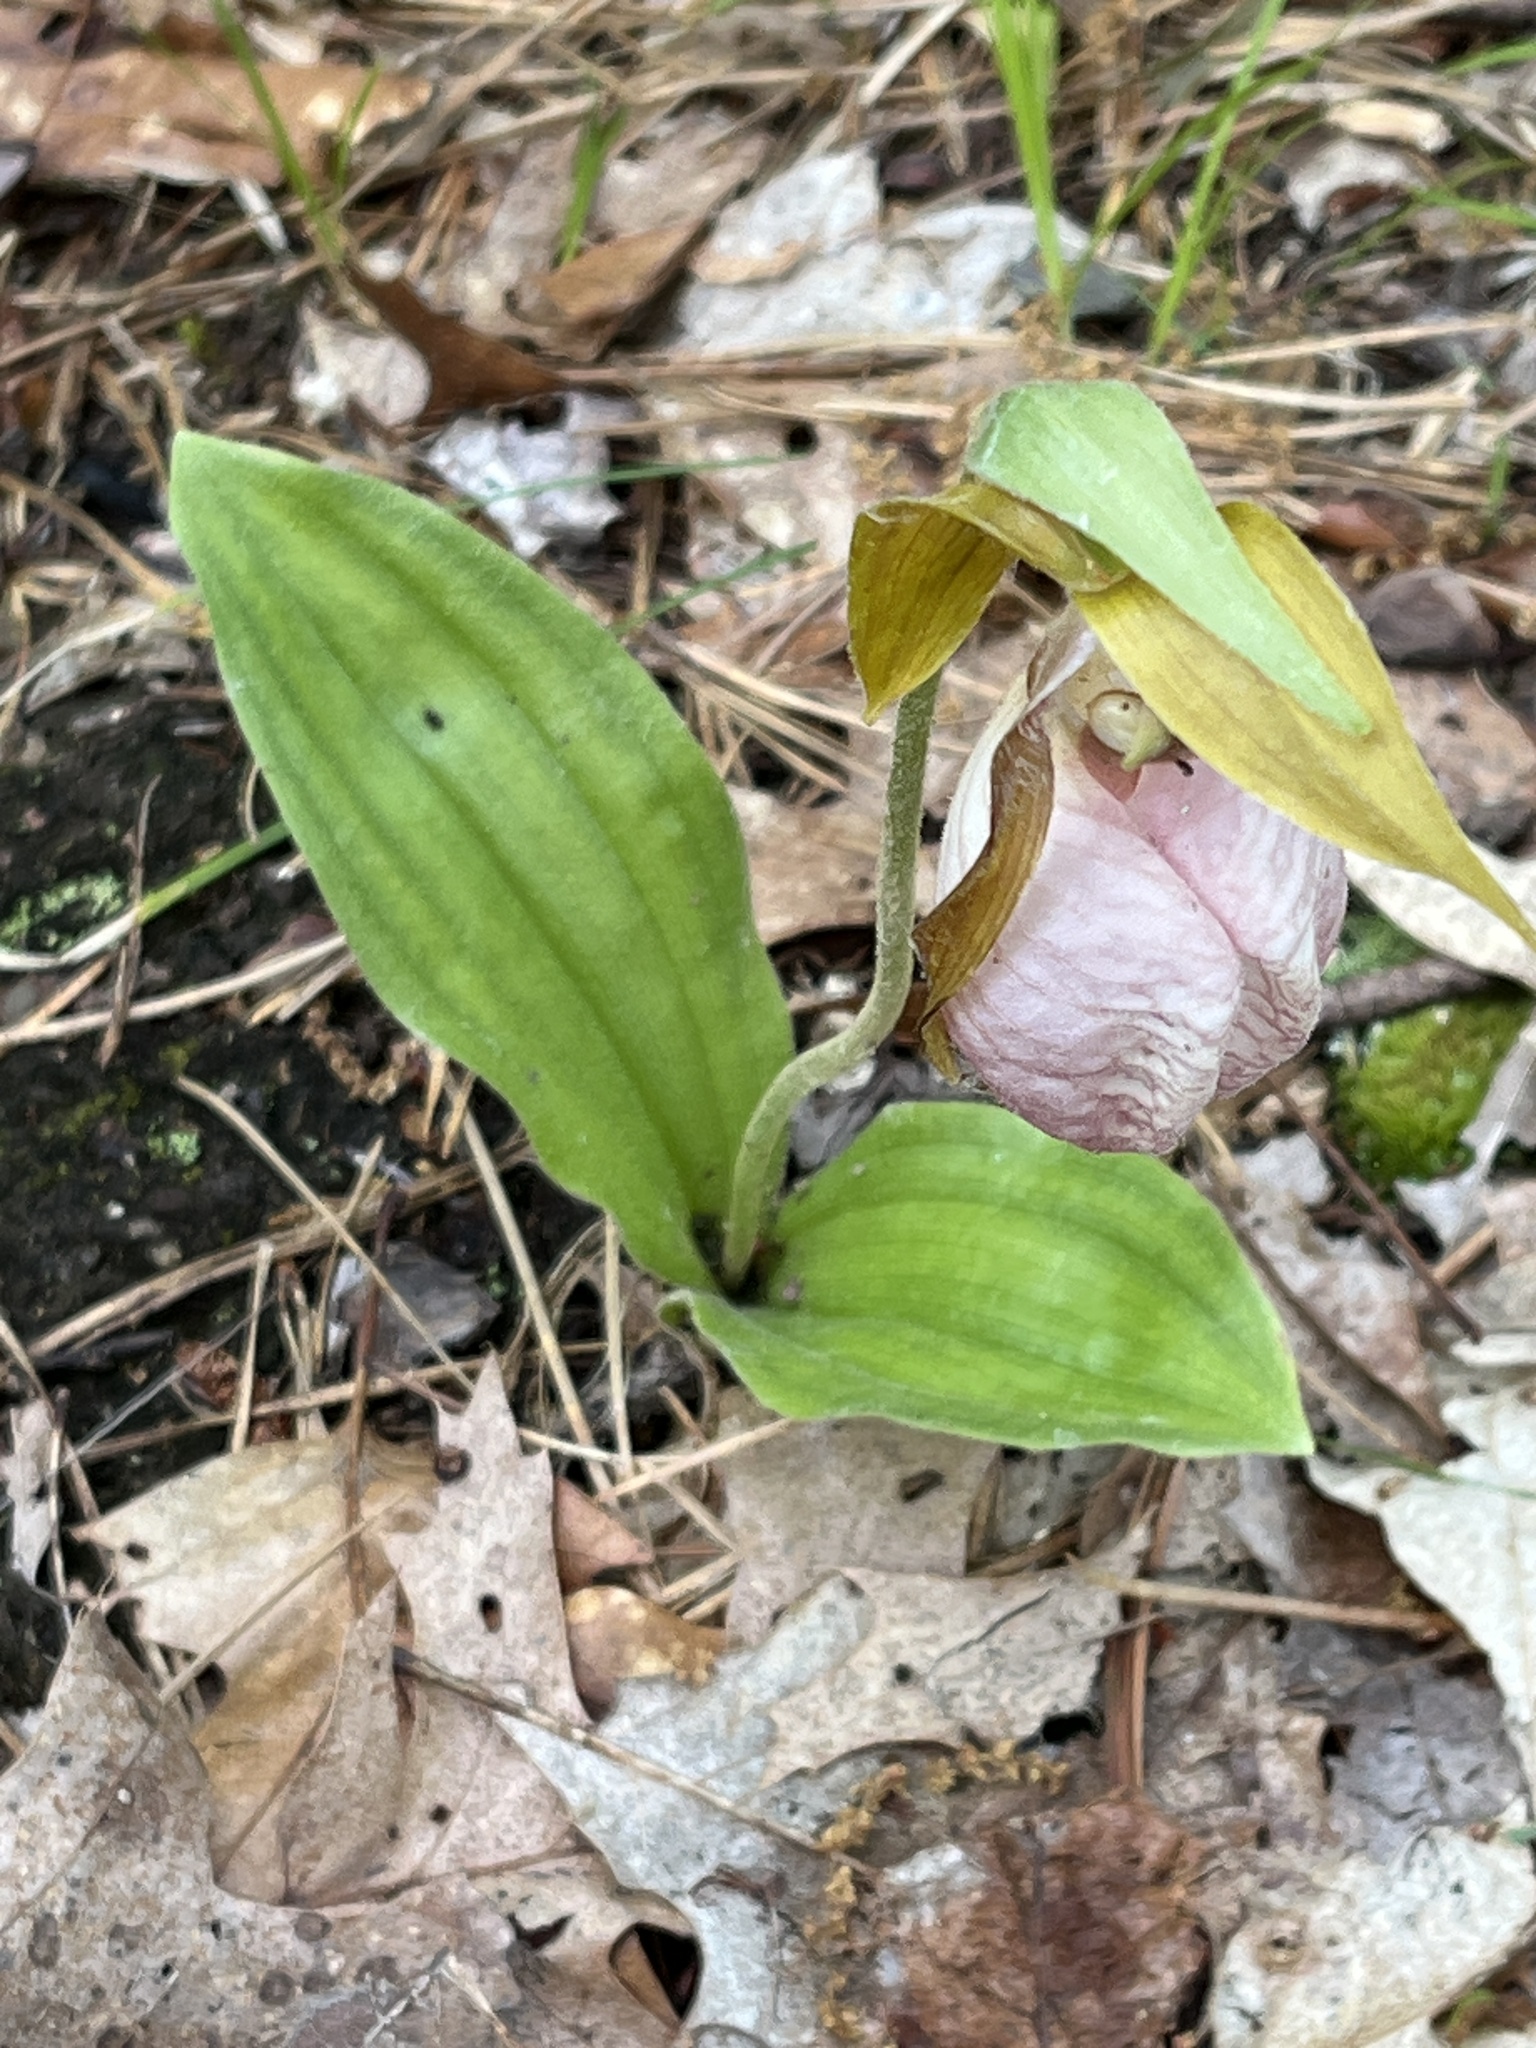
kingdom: Plantae
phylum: Tracheophyta
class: Liliopsida
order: Asparagales
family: Orchidaceae
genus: Cypripedium
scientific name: Cypripedium acaule
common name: Pink lady's-slipper
